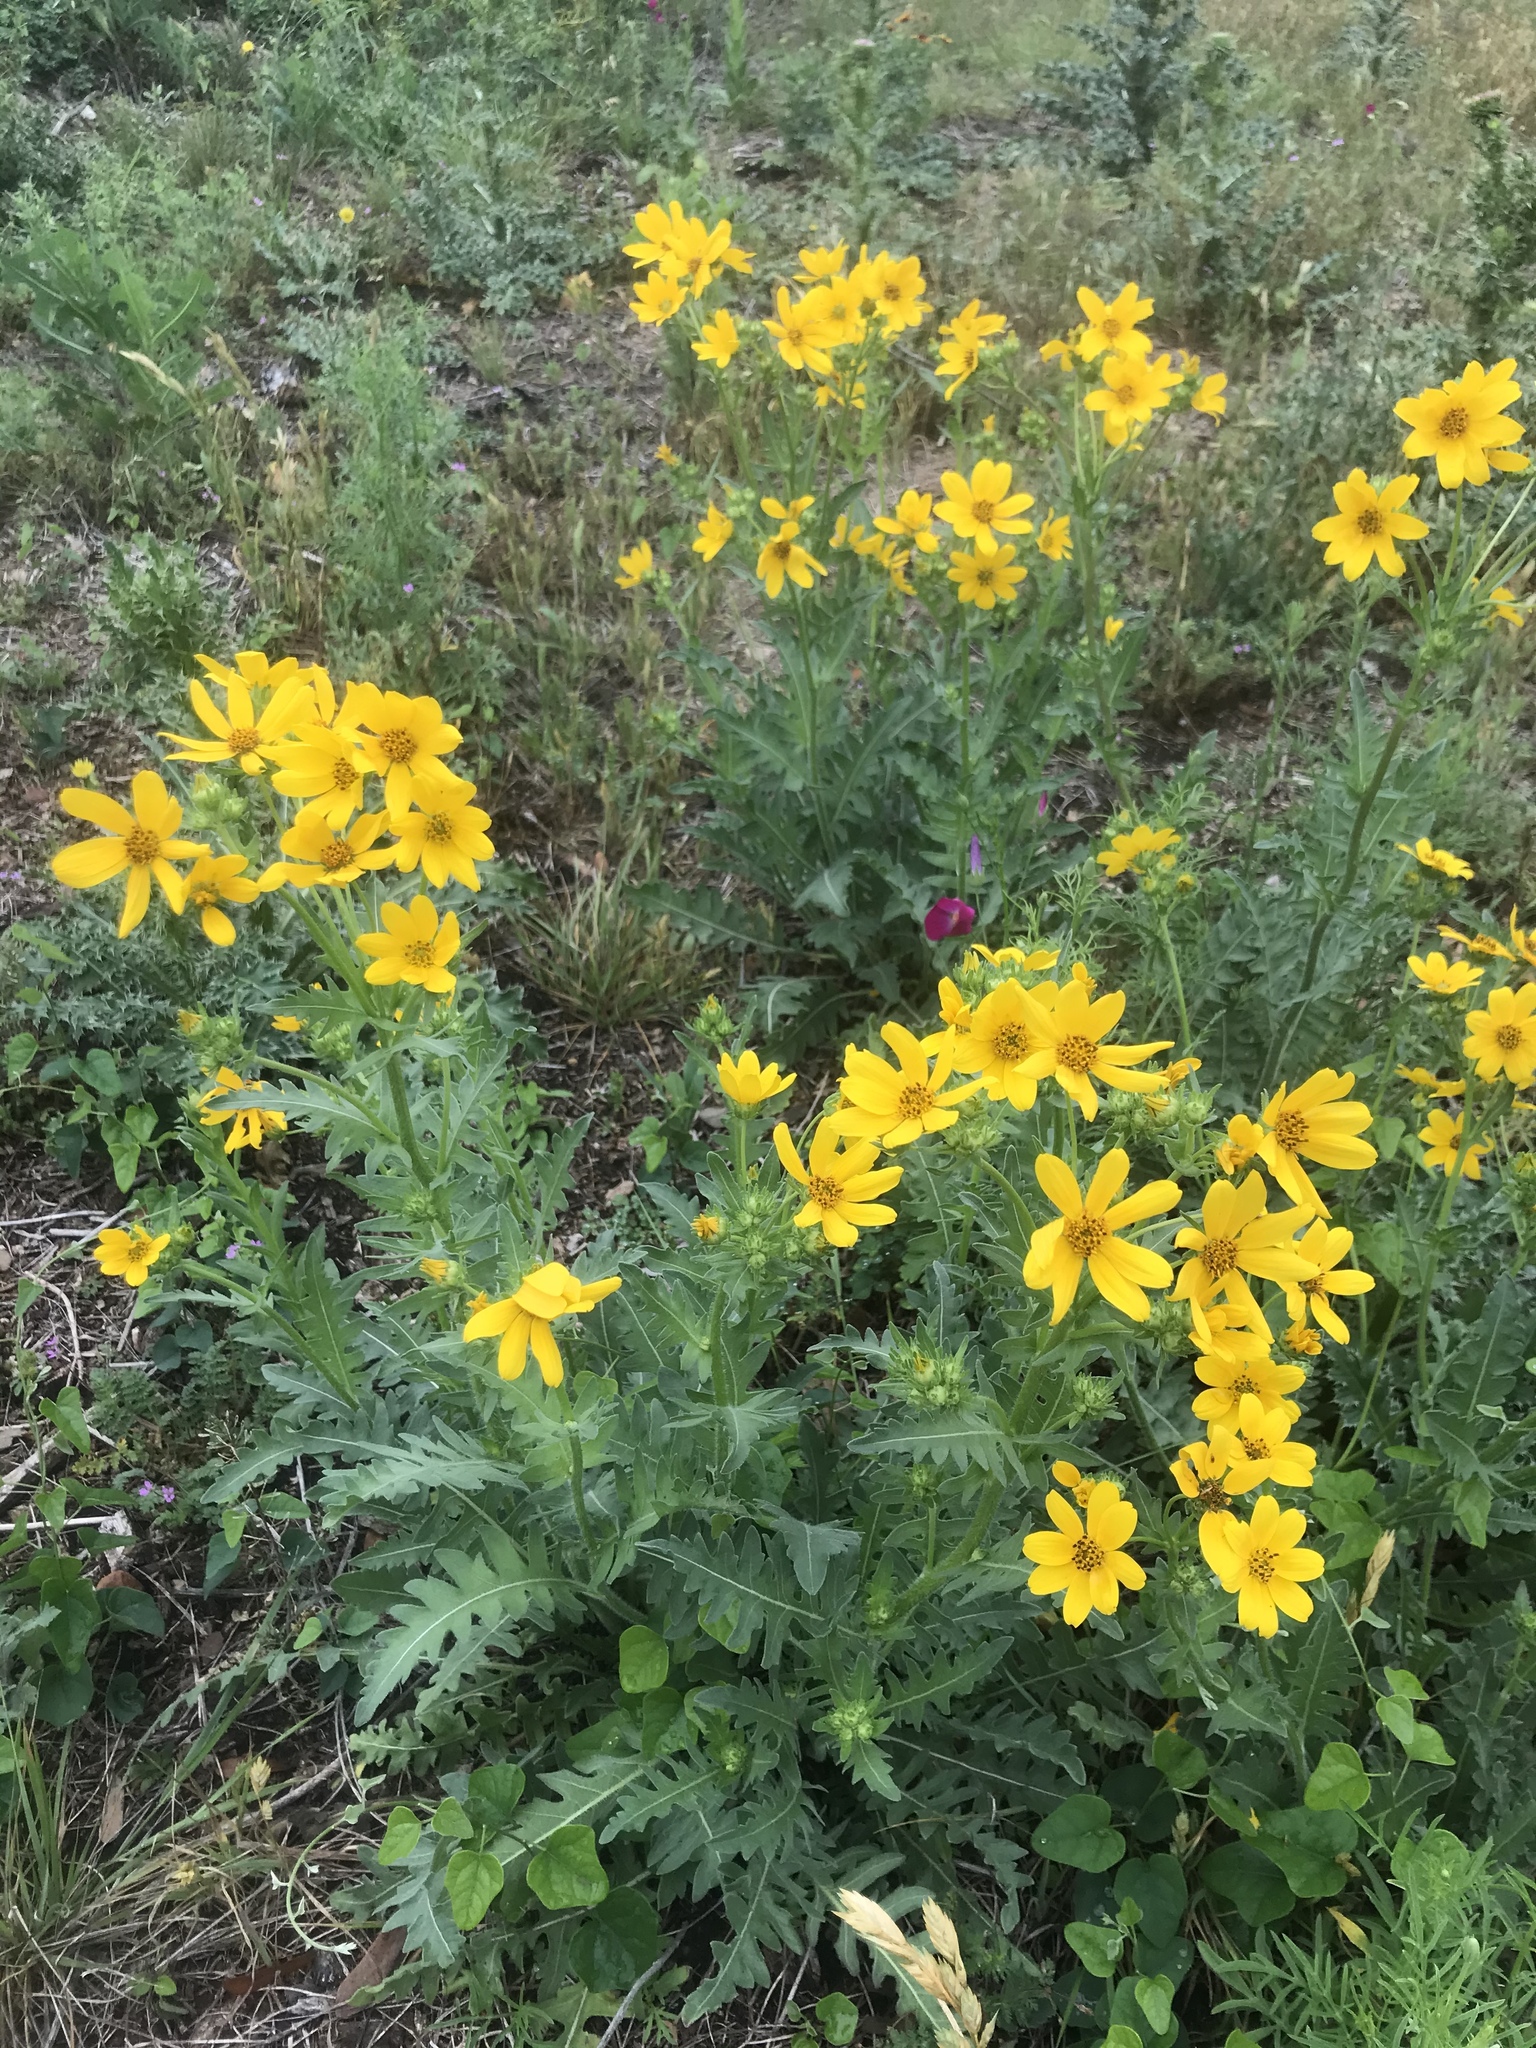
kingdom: Plantae
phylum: Tracheophyta
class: Magnoliopsida
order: Asterales
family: Asteraceae
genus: Engelmannia
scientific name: Engelmannia peristenia
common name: Engelmann's daisy
